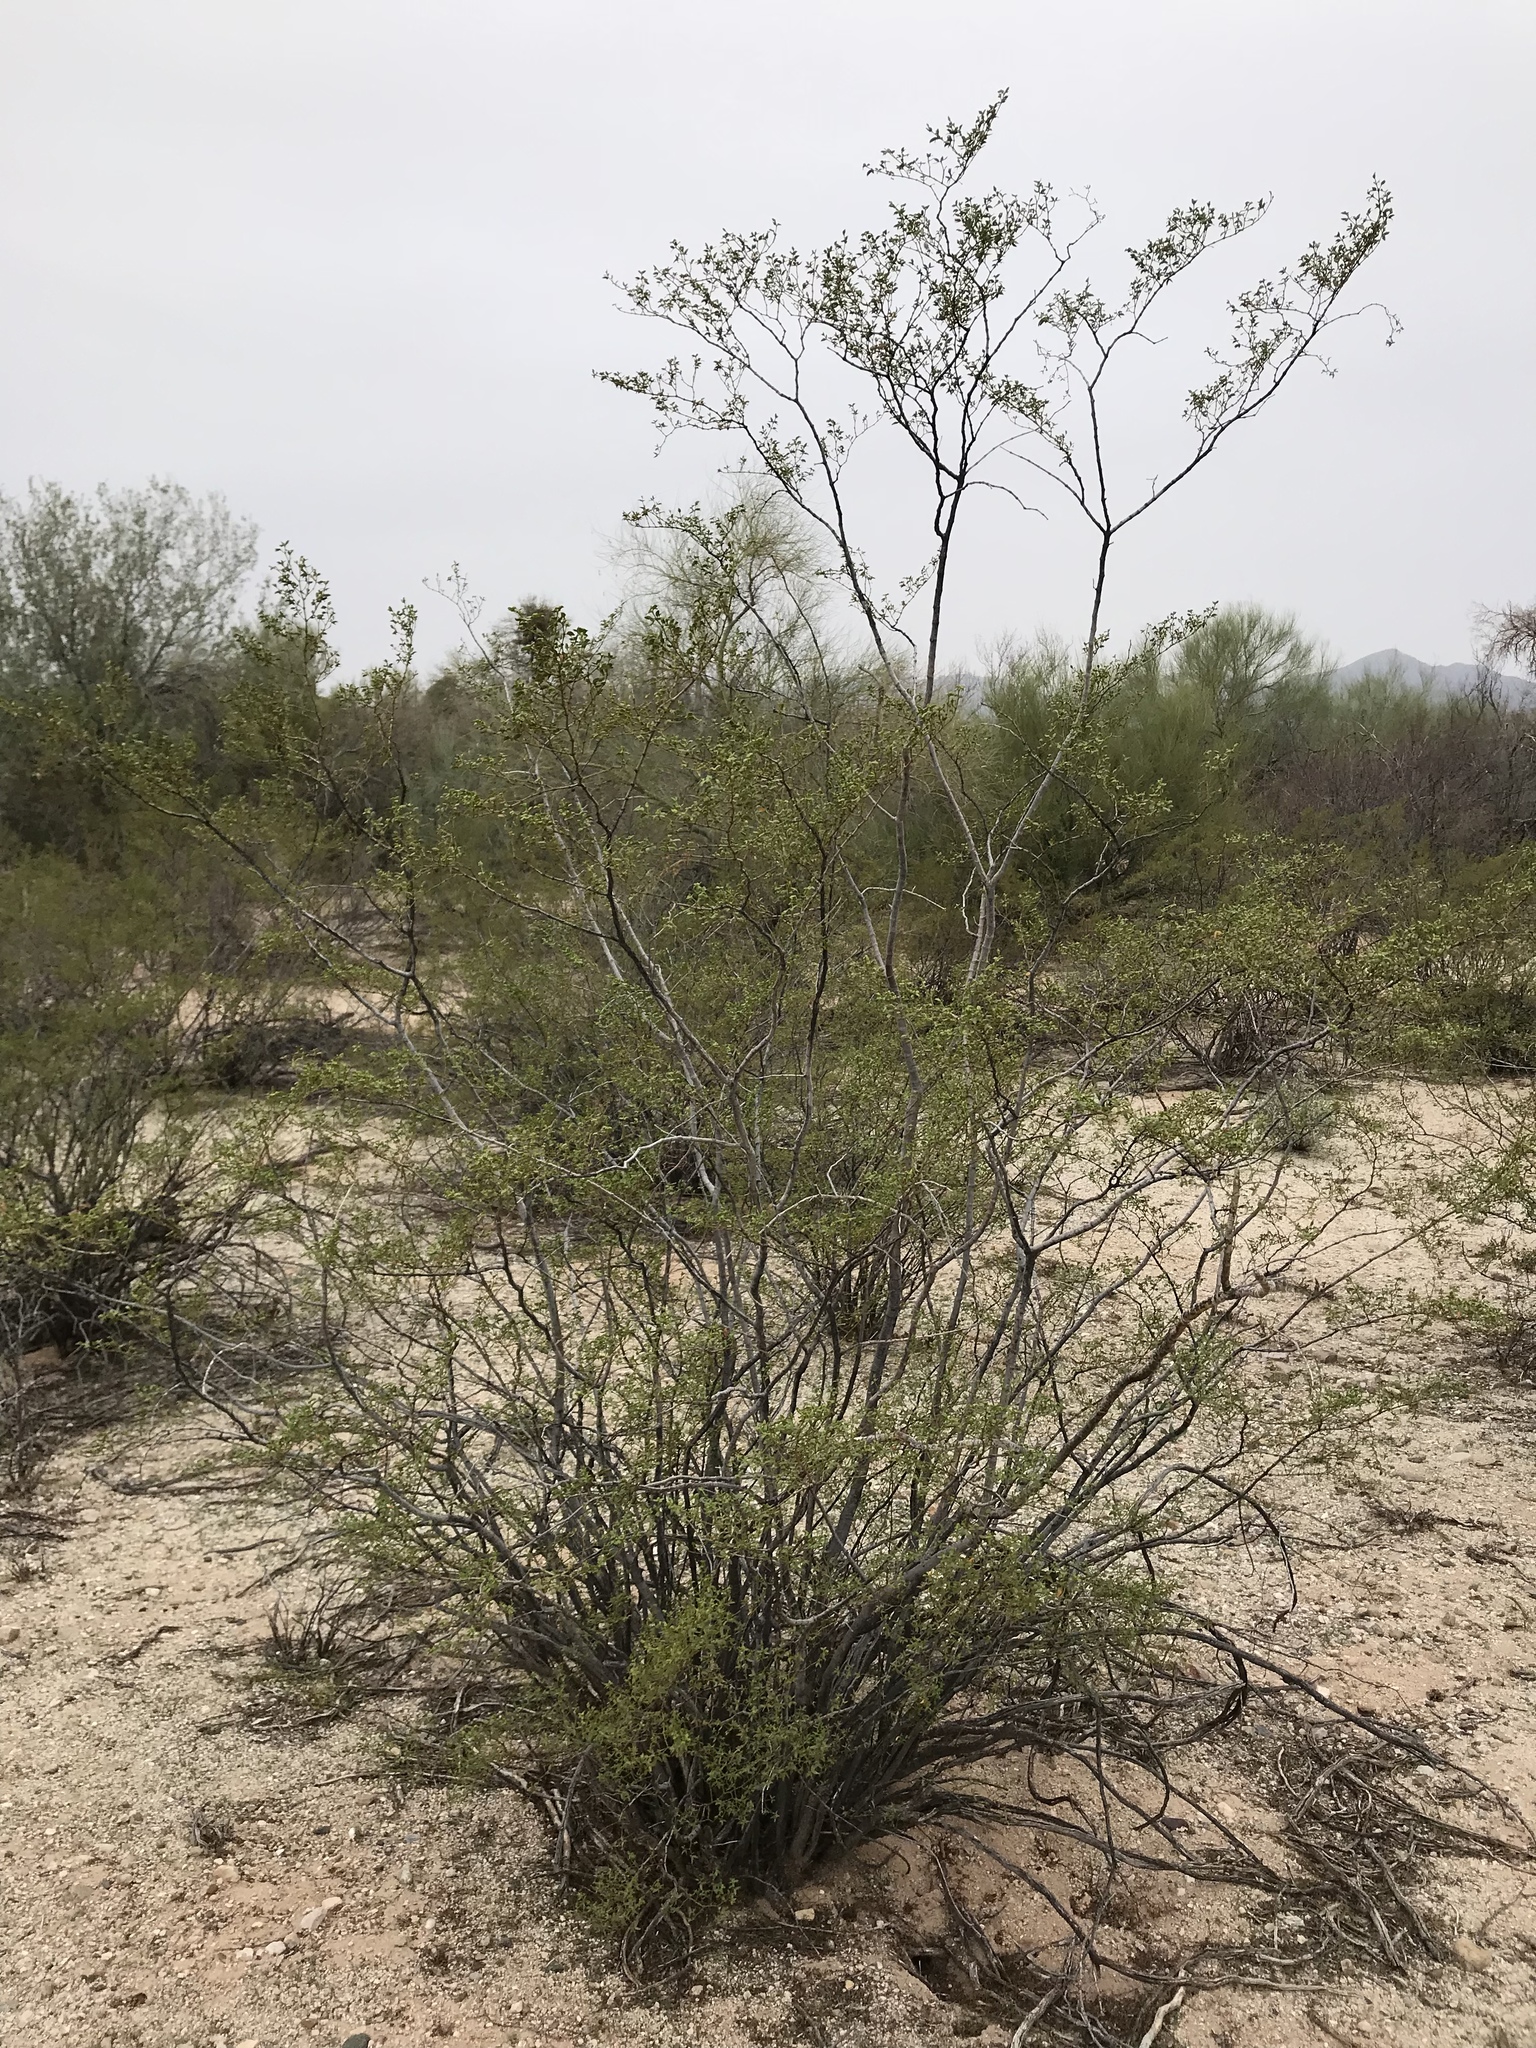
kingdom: Plantae
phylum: Tracheophyta
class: Magnoliopsida
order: Zygophyllales
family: Zygophyllaceae
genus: Larrea
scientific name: Larrea tridentata
